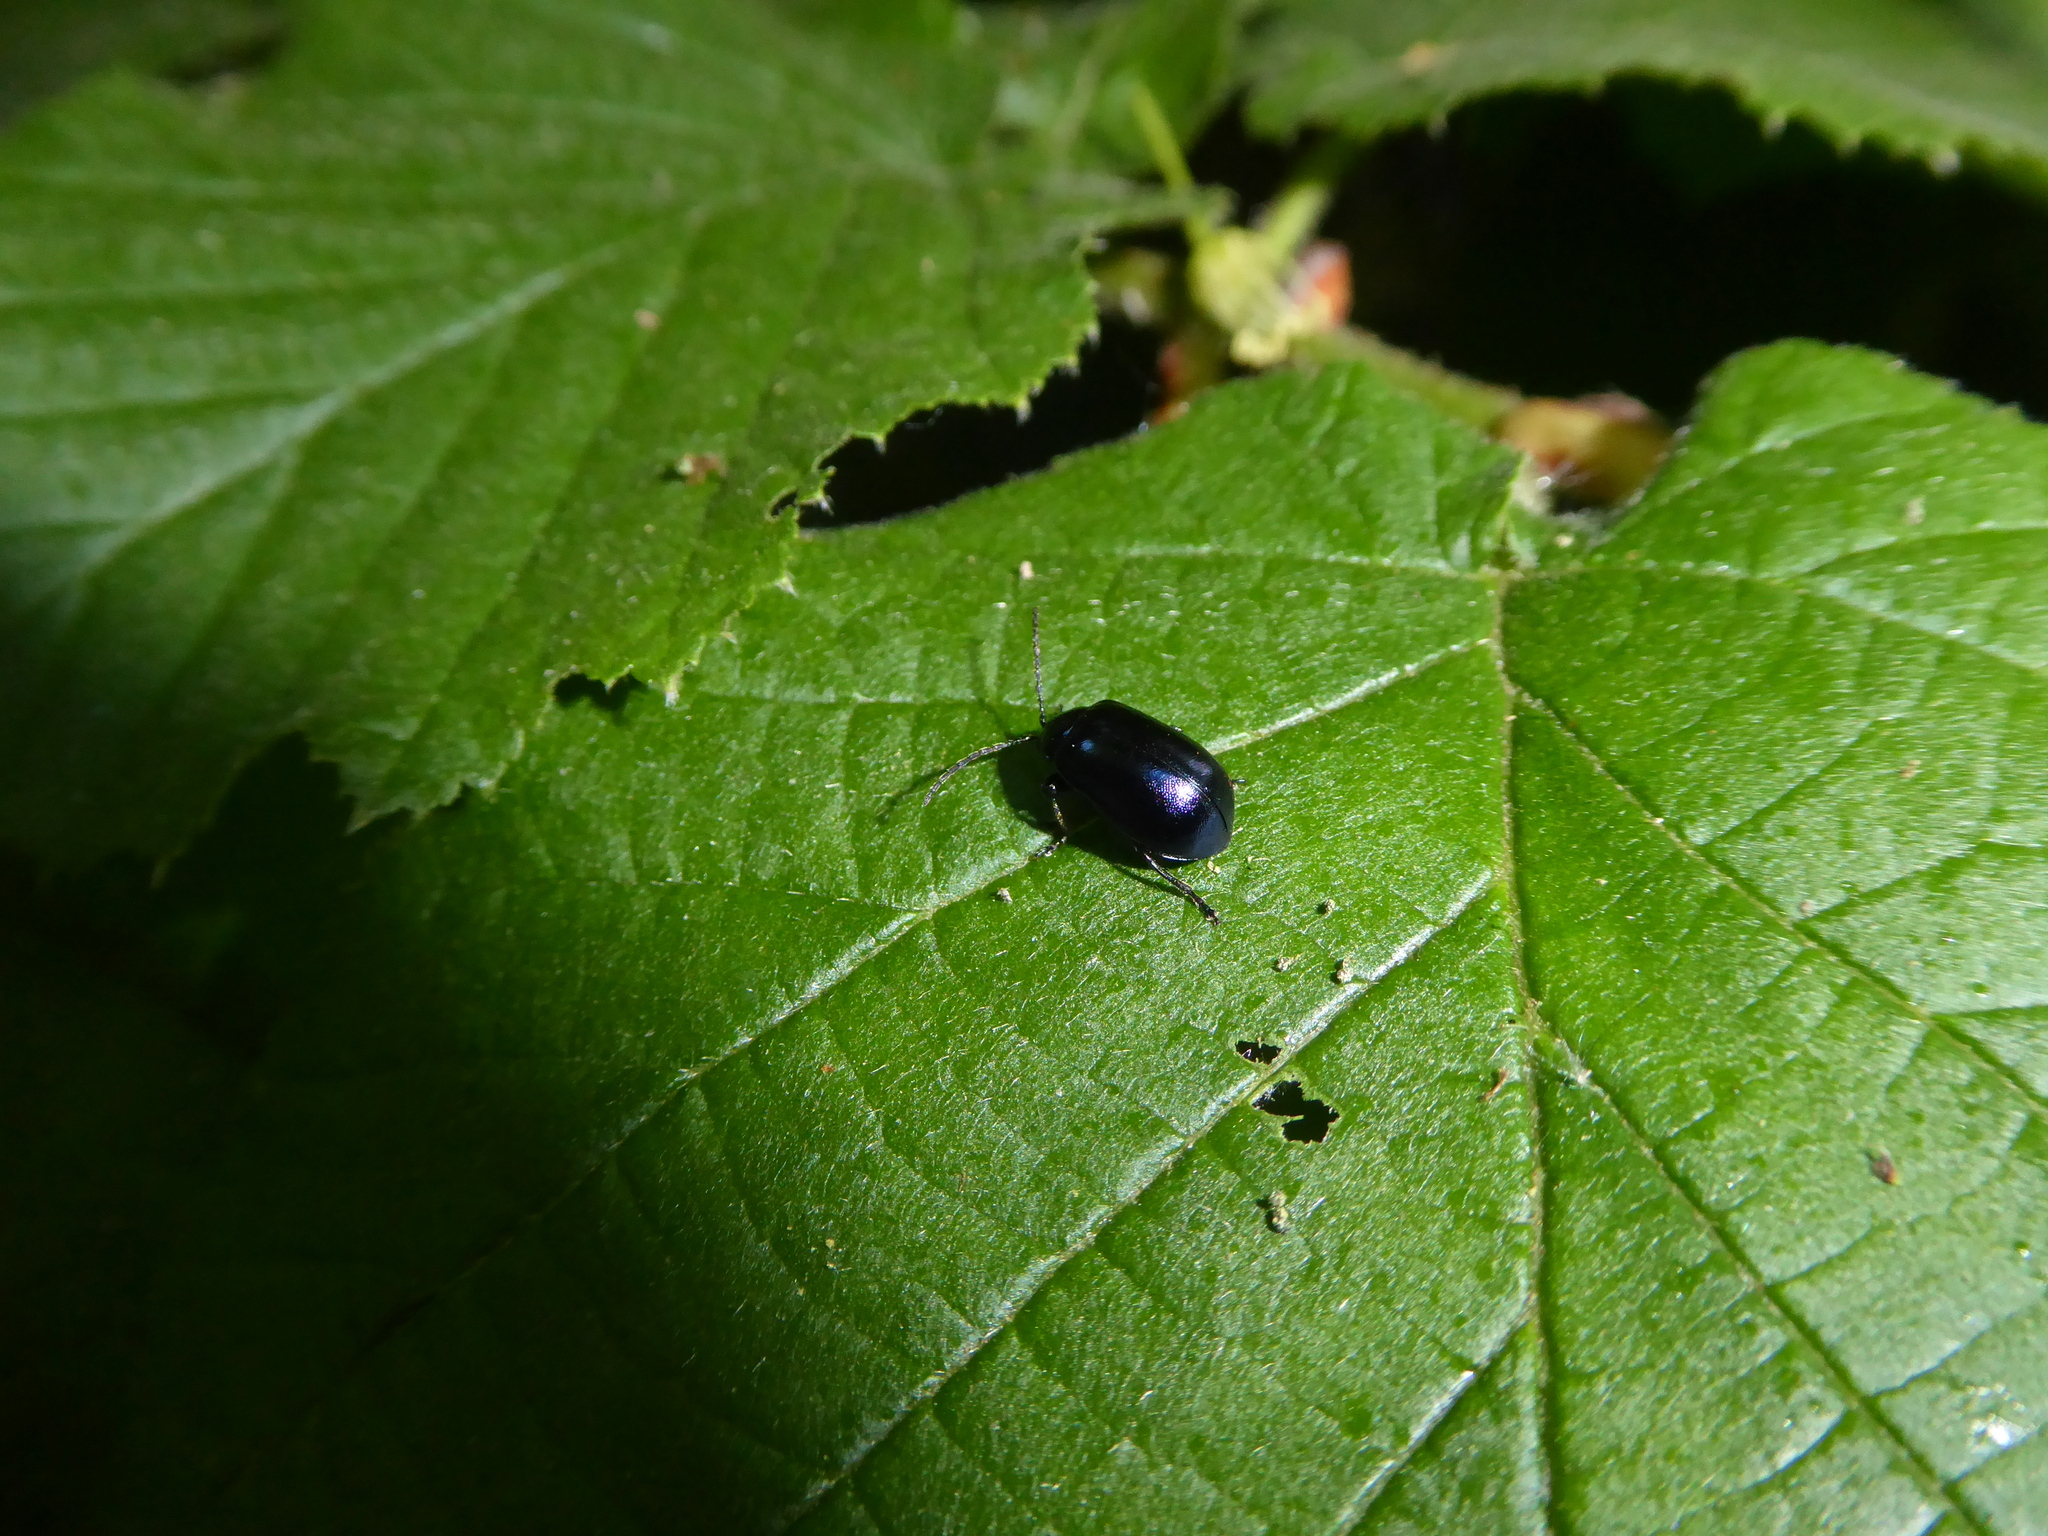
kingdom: Animalia
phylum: Arthropoda
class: Insecta
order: Coleoptera
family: Chrysomelidae
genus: Agelastica
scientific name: Agelastica alni
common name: Alder leaf beetle
